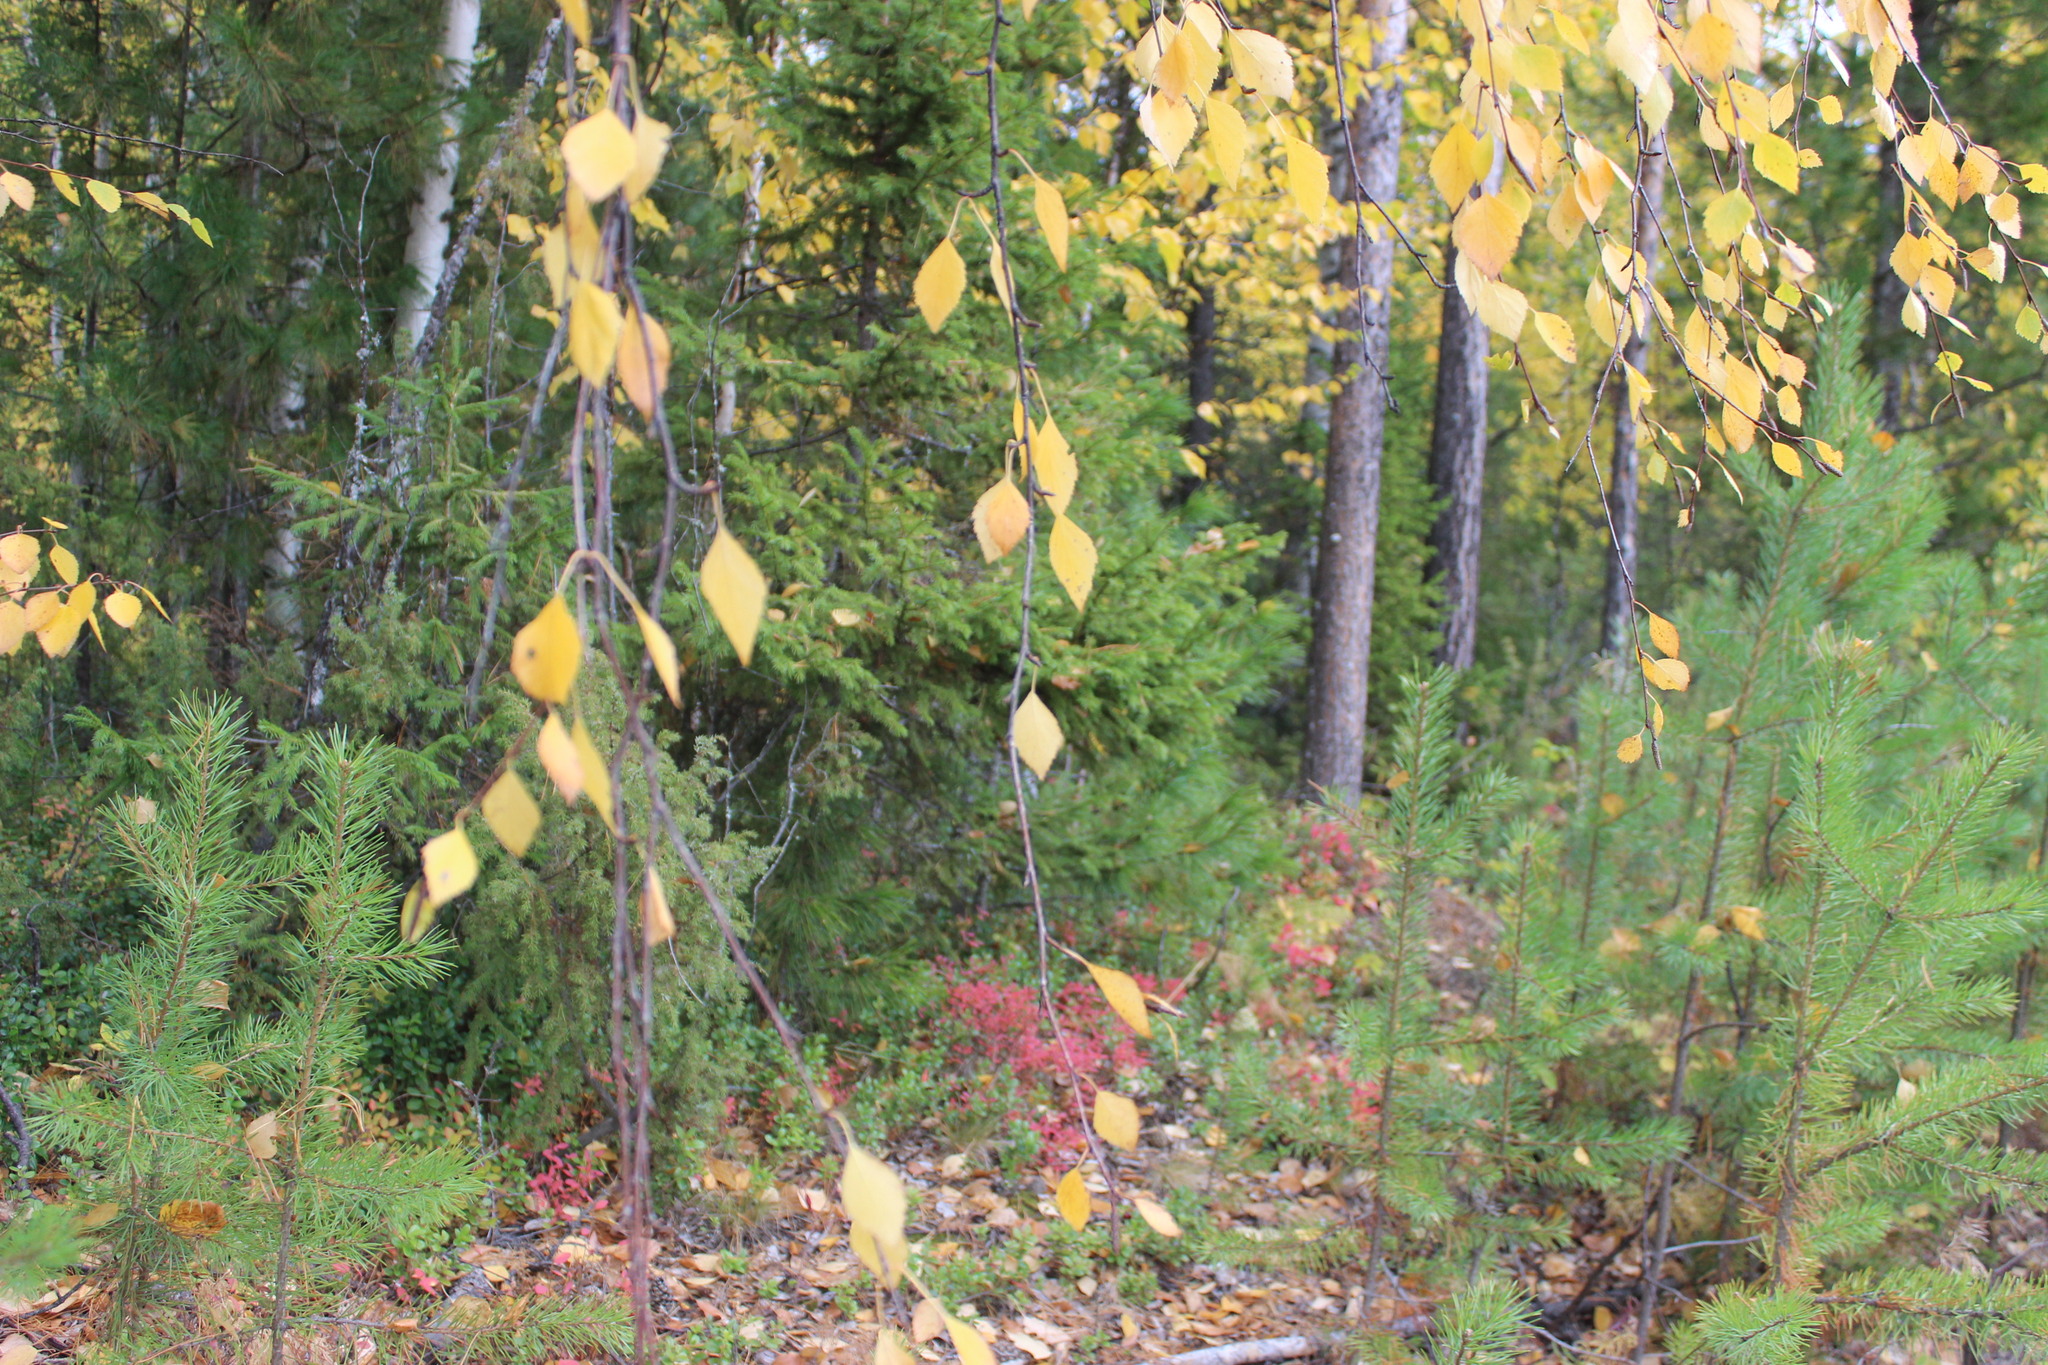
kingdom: Plantae
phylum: Tracheophyta
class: Magnoliopsida
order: Fagales
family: Betulaceae
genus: Betula
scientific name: Betula pendula
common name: Silver birch
